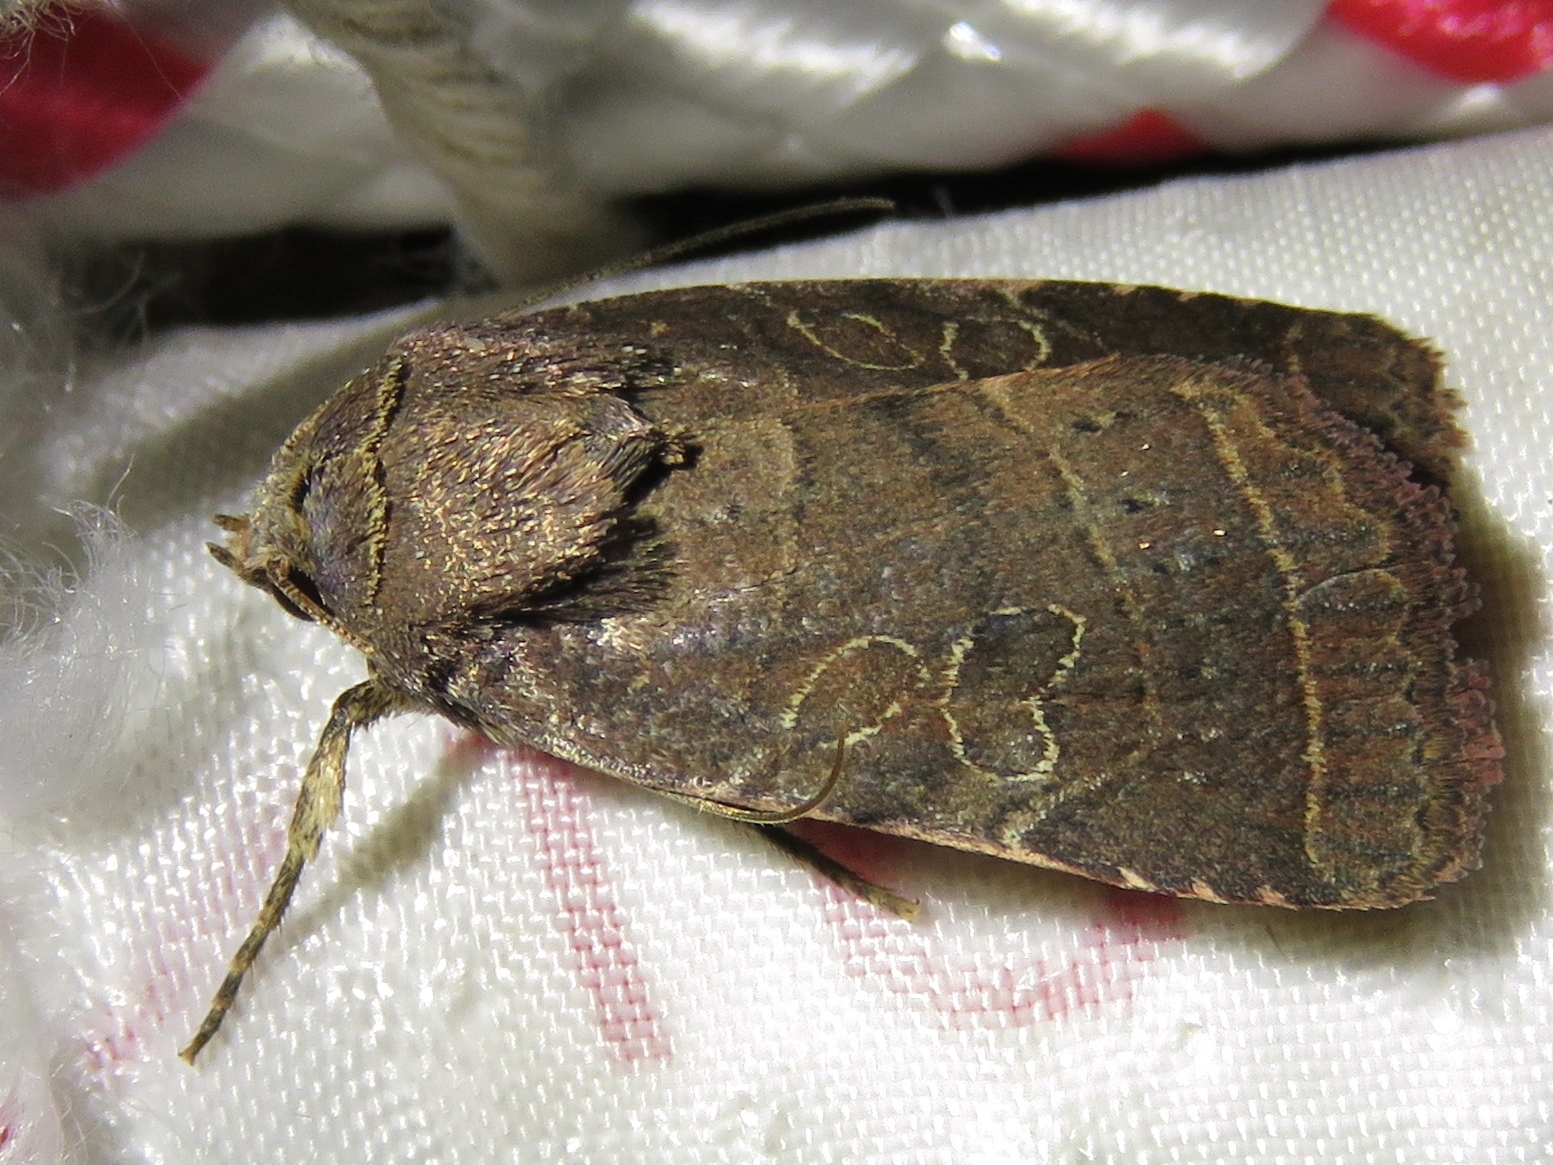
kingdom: Animalia
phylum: Arthropoda
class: Insecta
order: Lepidoptera
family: Noctuidae
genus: Orthodes
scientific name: Orthodes majuscula
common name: Rustic quaker
